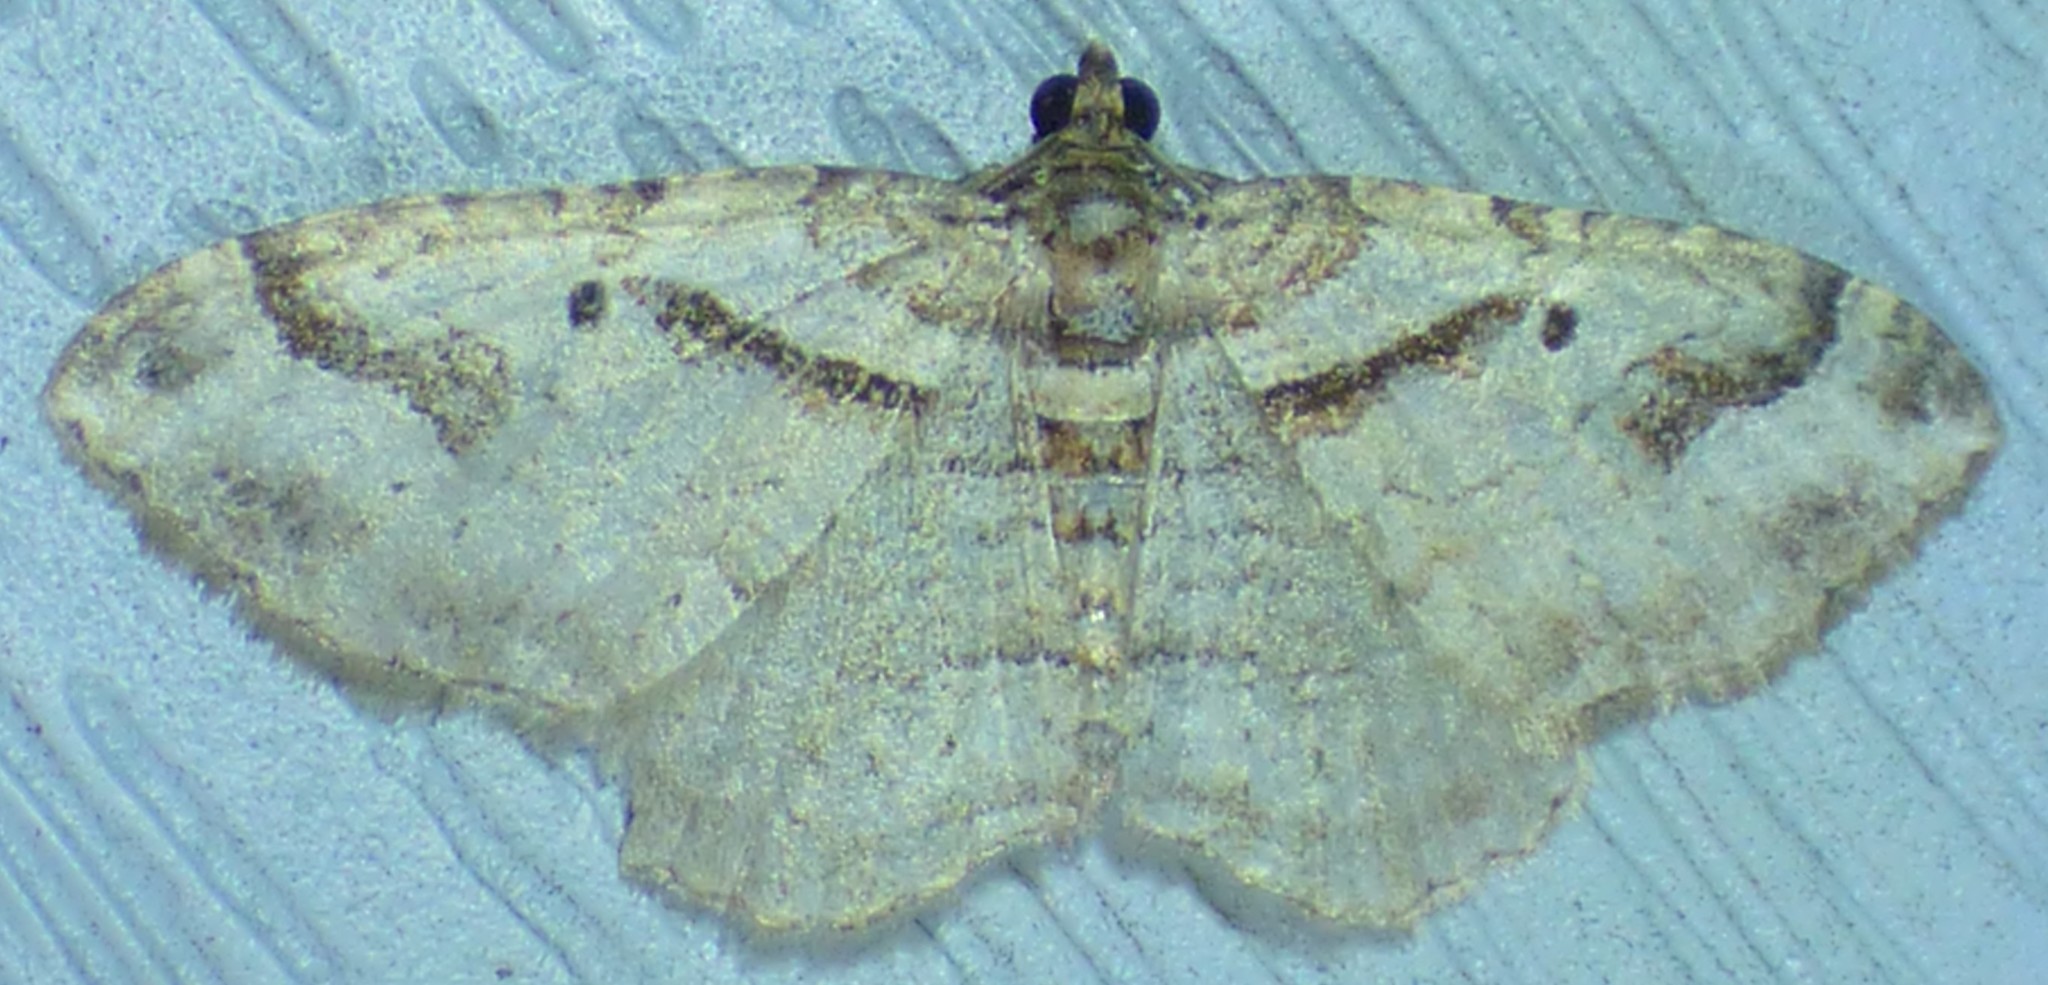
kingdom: Animalia
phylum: Arthropoda
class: Insecta
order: Lepidoptera
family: Geometridae
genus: Costaconvexa
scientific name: Costaconvexa centrostrigaria
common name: Bent-line carpet
